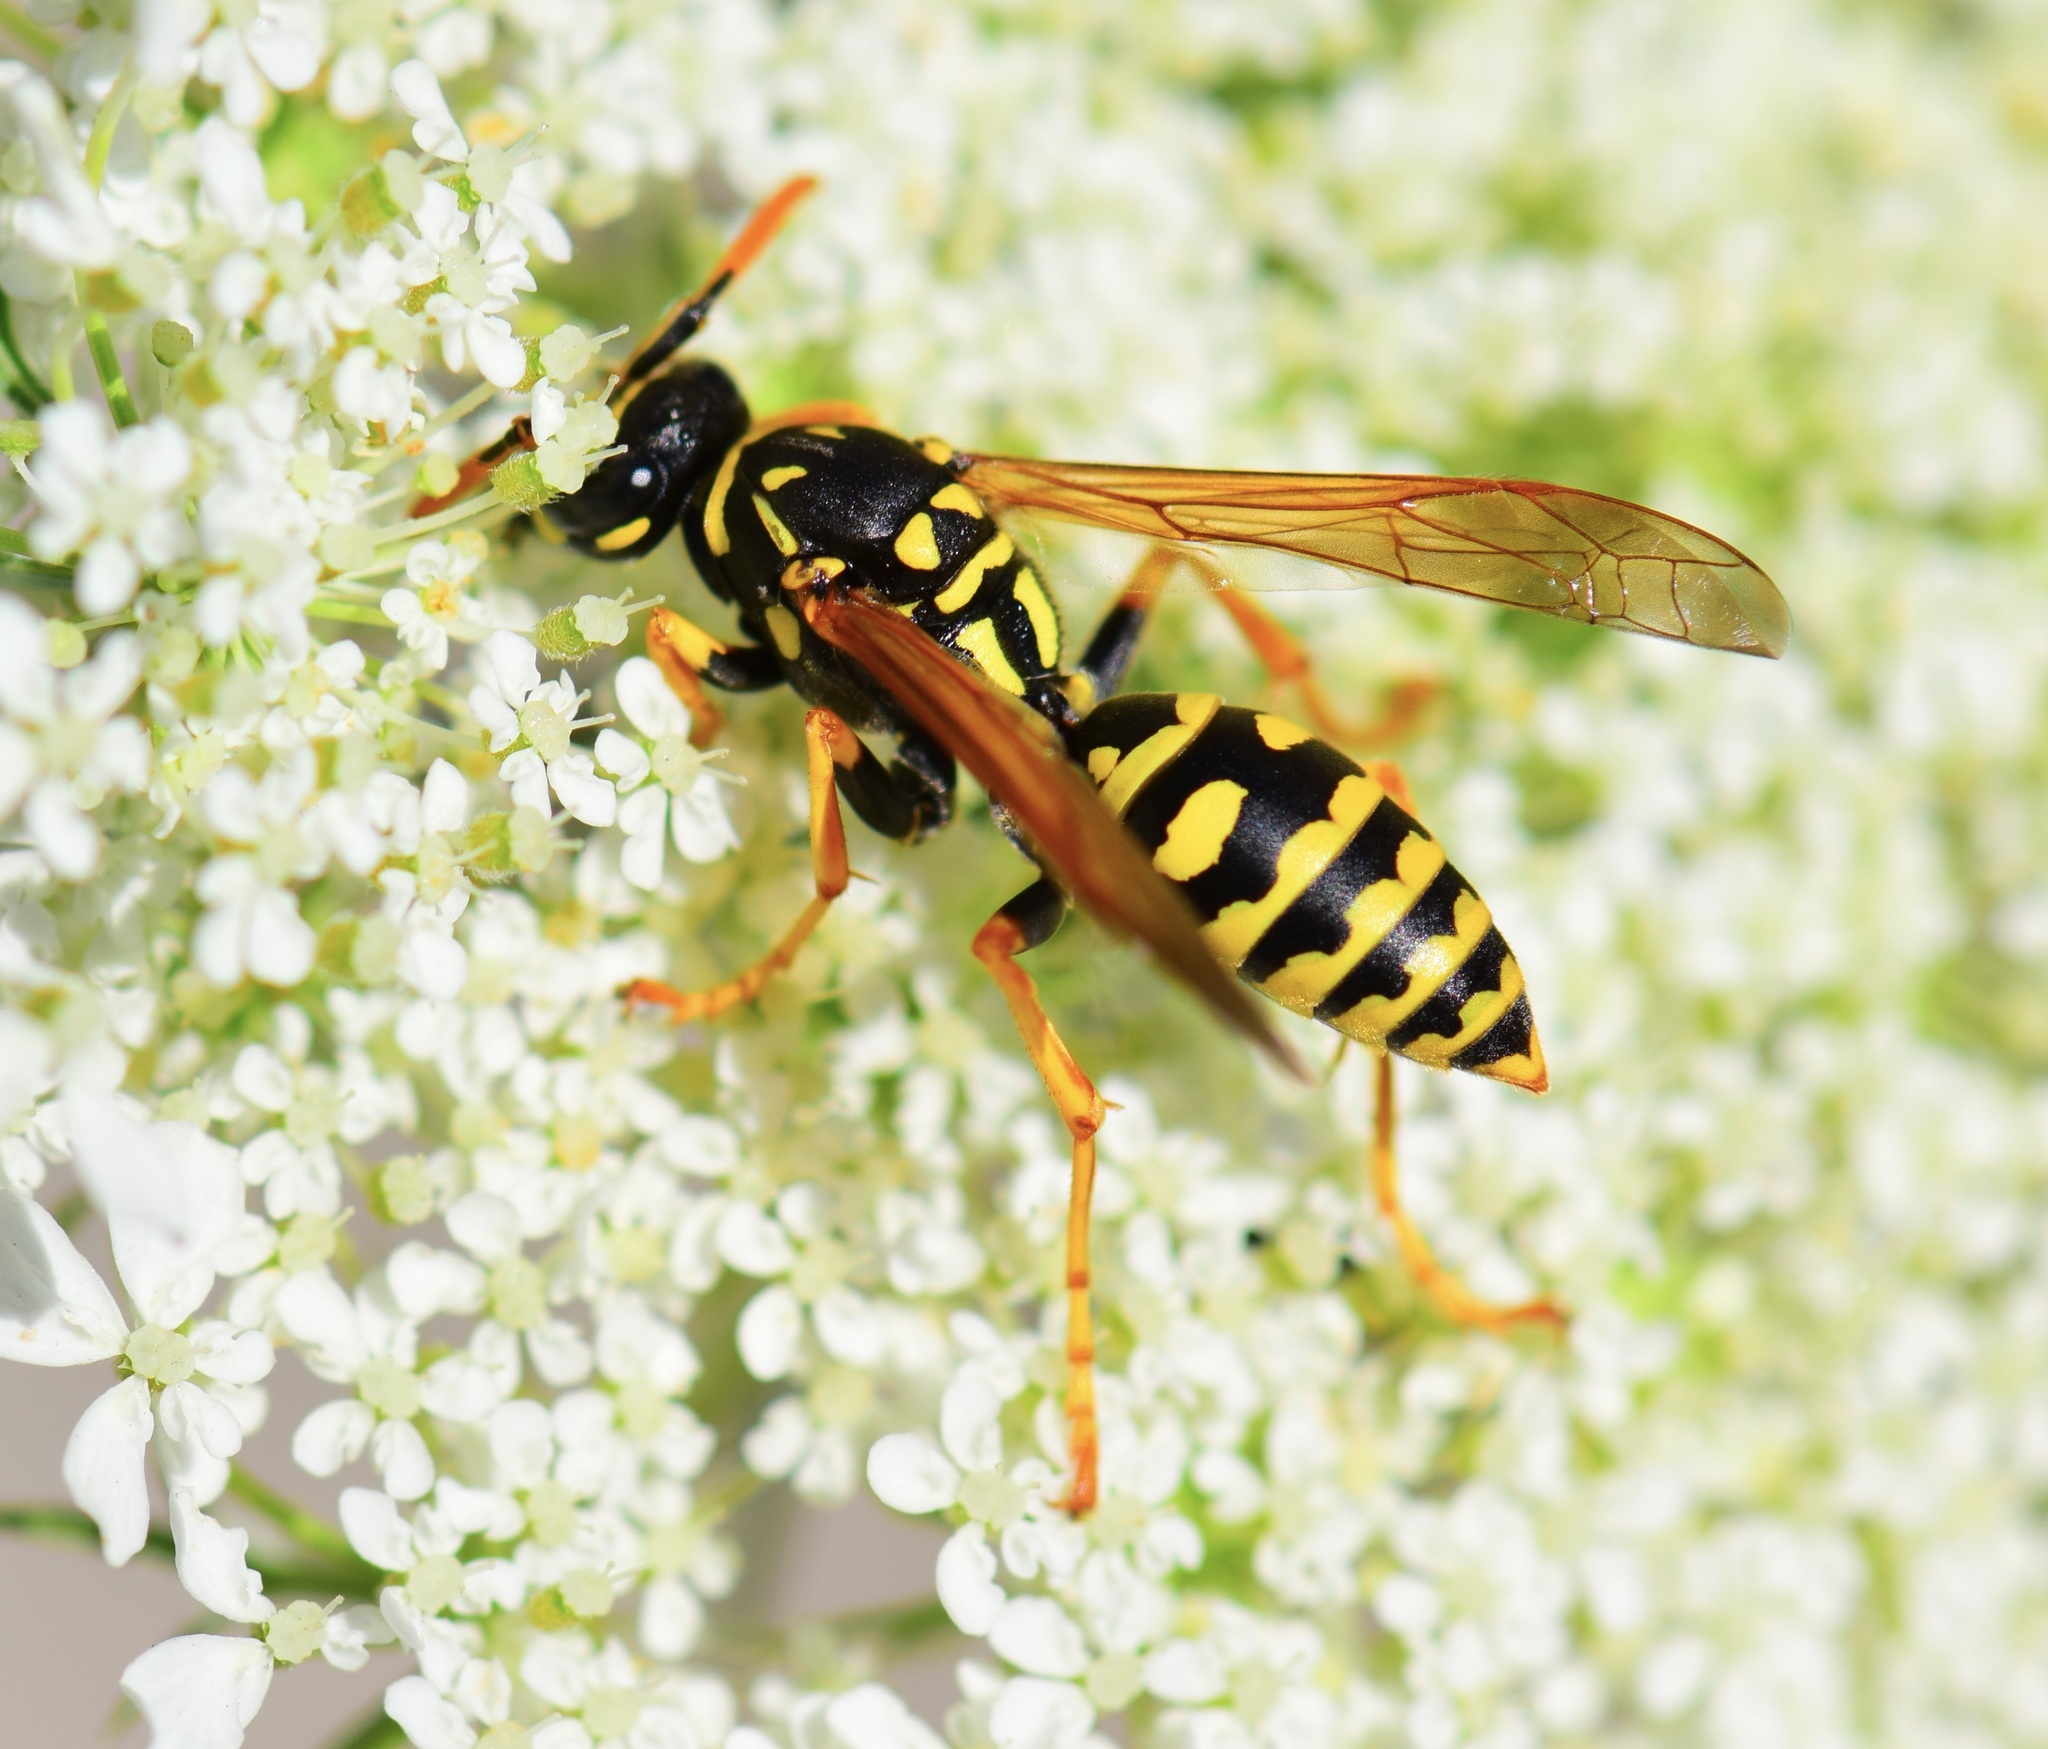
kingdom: Animalia
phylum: Arthropoda
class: Insecta
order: Hymenoptera
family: Eumenidae
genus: Polistes
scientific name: Polistes dominula
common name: Paper wasp
